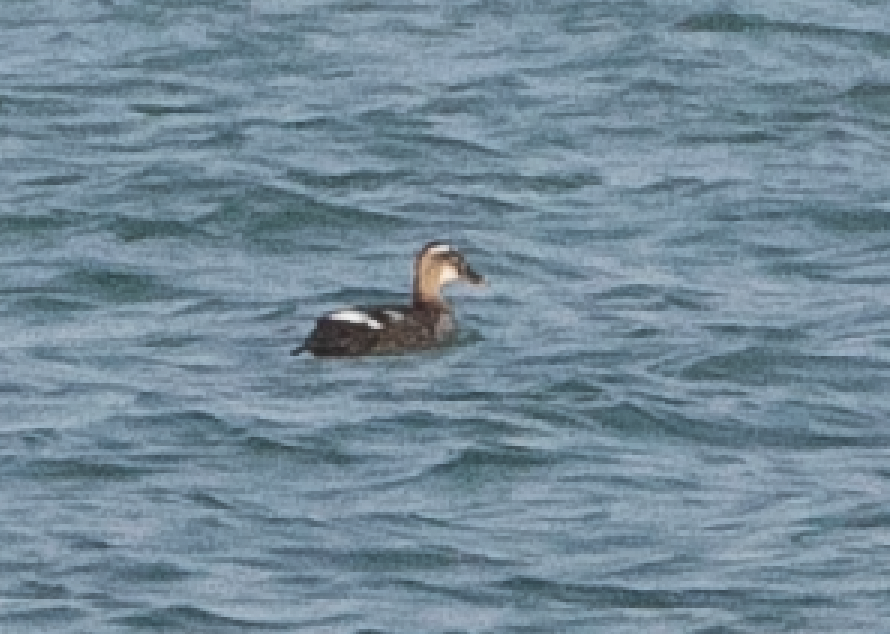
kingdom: Animalia
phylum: Chordata
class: Aves
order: Anseriformes
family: Anatidae
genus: Anas
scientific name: Anas platyrhynchos
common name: Mallard
